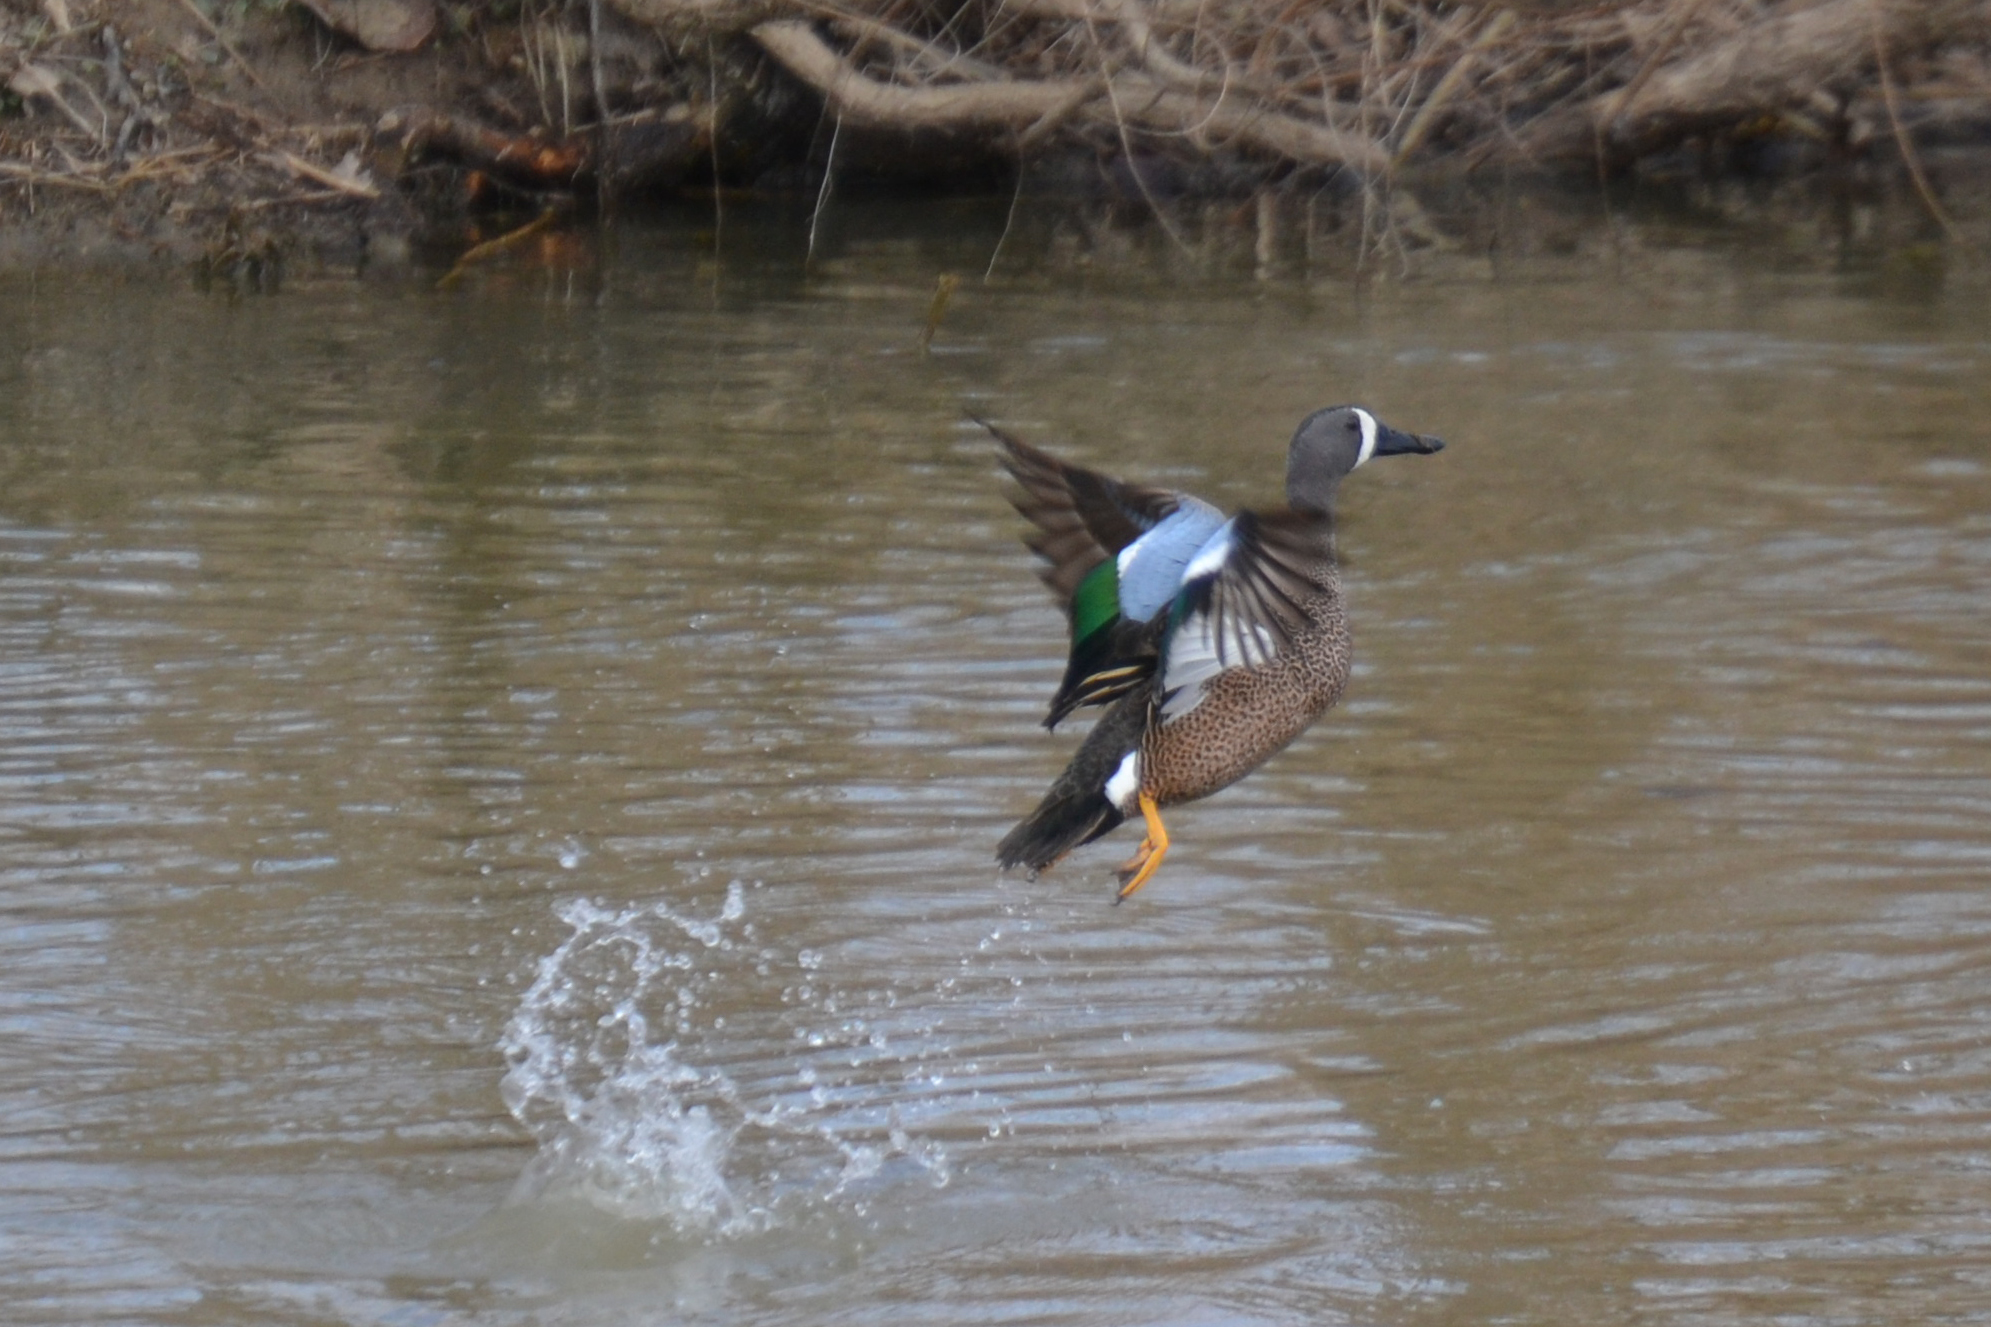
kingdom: Animalia
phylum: Chordata
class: Aves
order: Anseriformes
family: Anatidae
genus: Spatula
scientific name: Spatula discors
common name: Blue-winged teal
